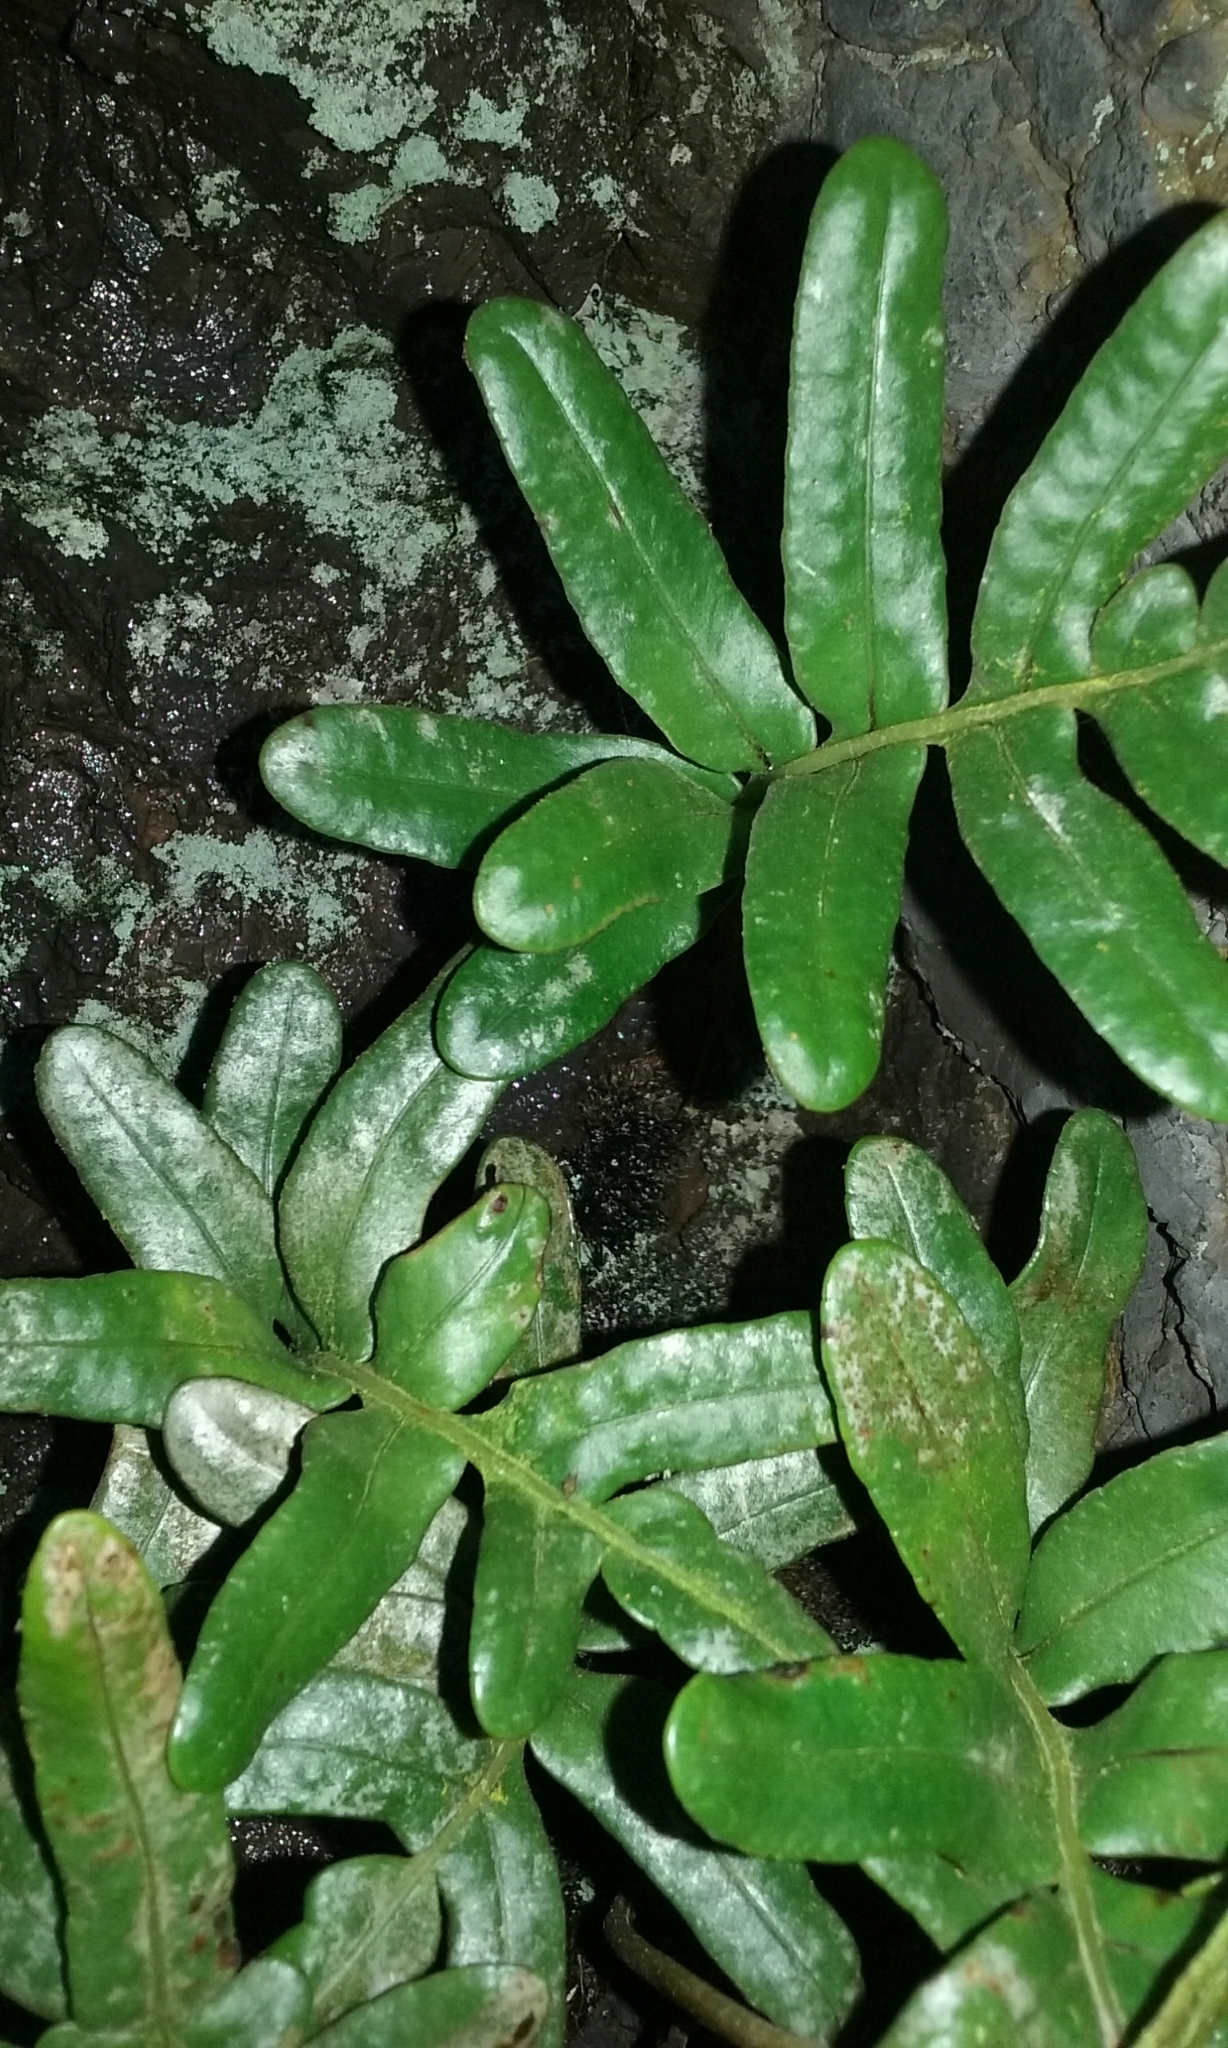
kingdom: Plantae
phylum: Tracheophyta
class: Polypodiopsida
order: Polypodiales
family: Polypodiaceae
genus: Polypodium
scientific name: Polypodium scouleri
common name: Scouler's polypody
